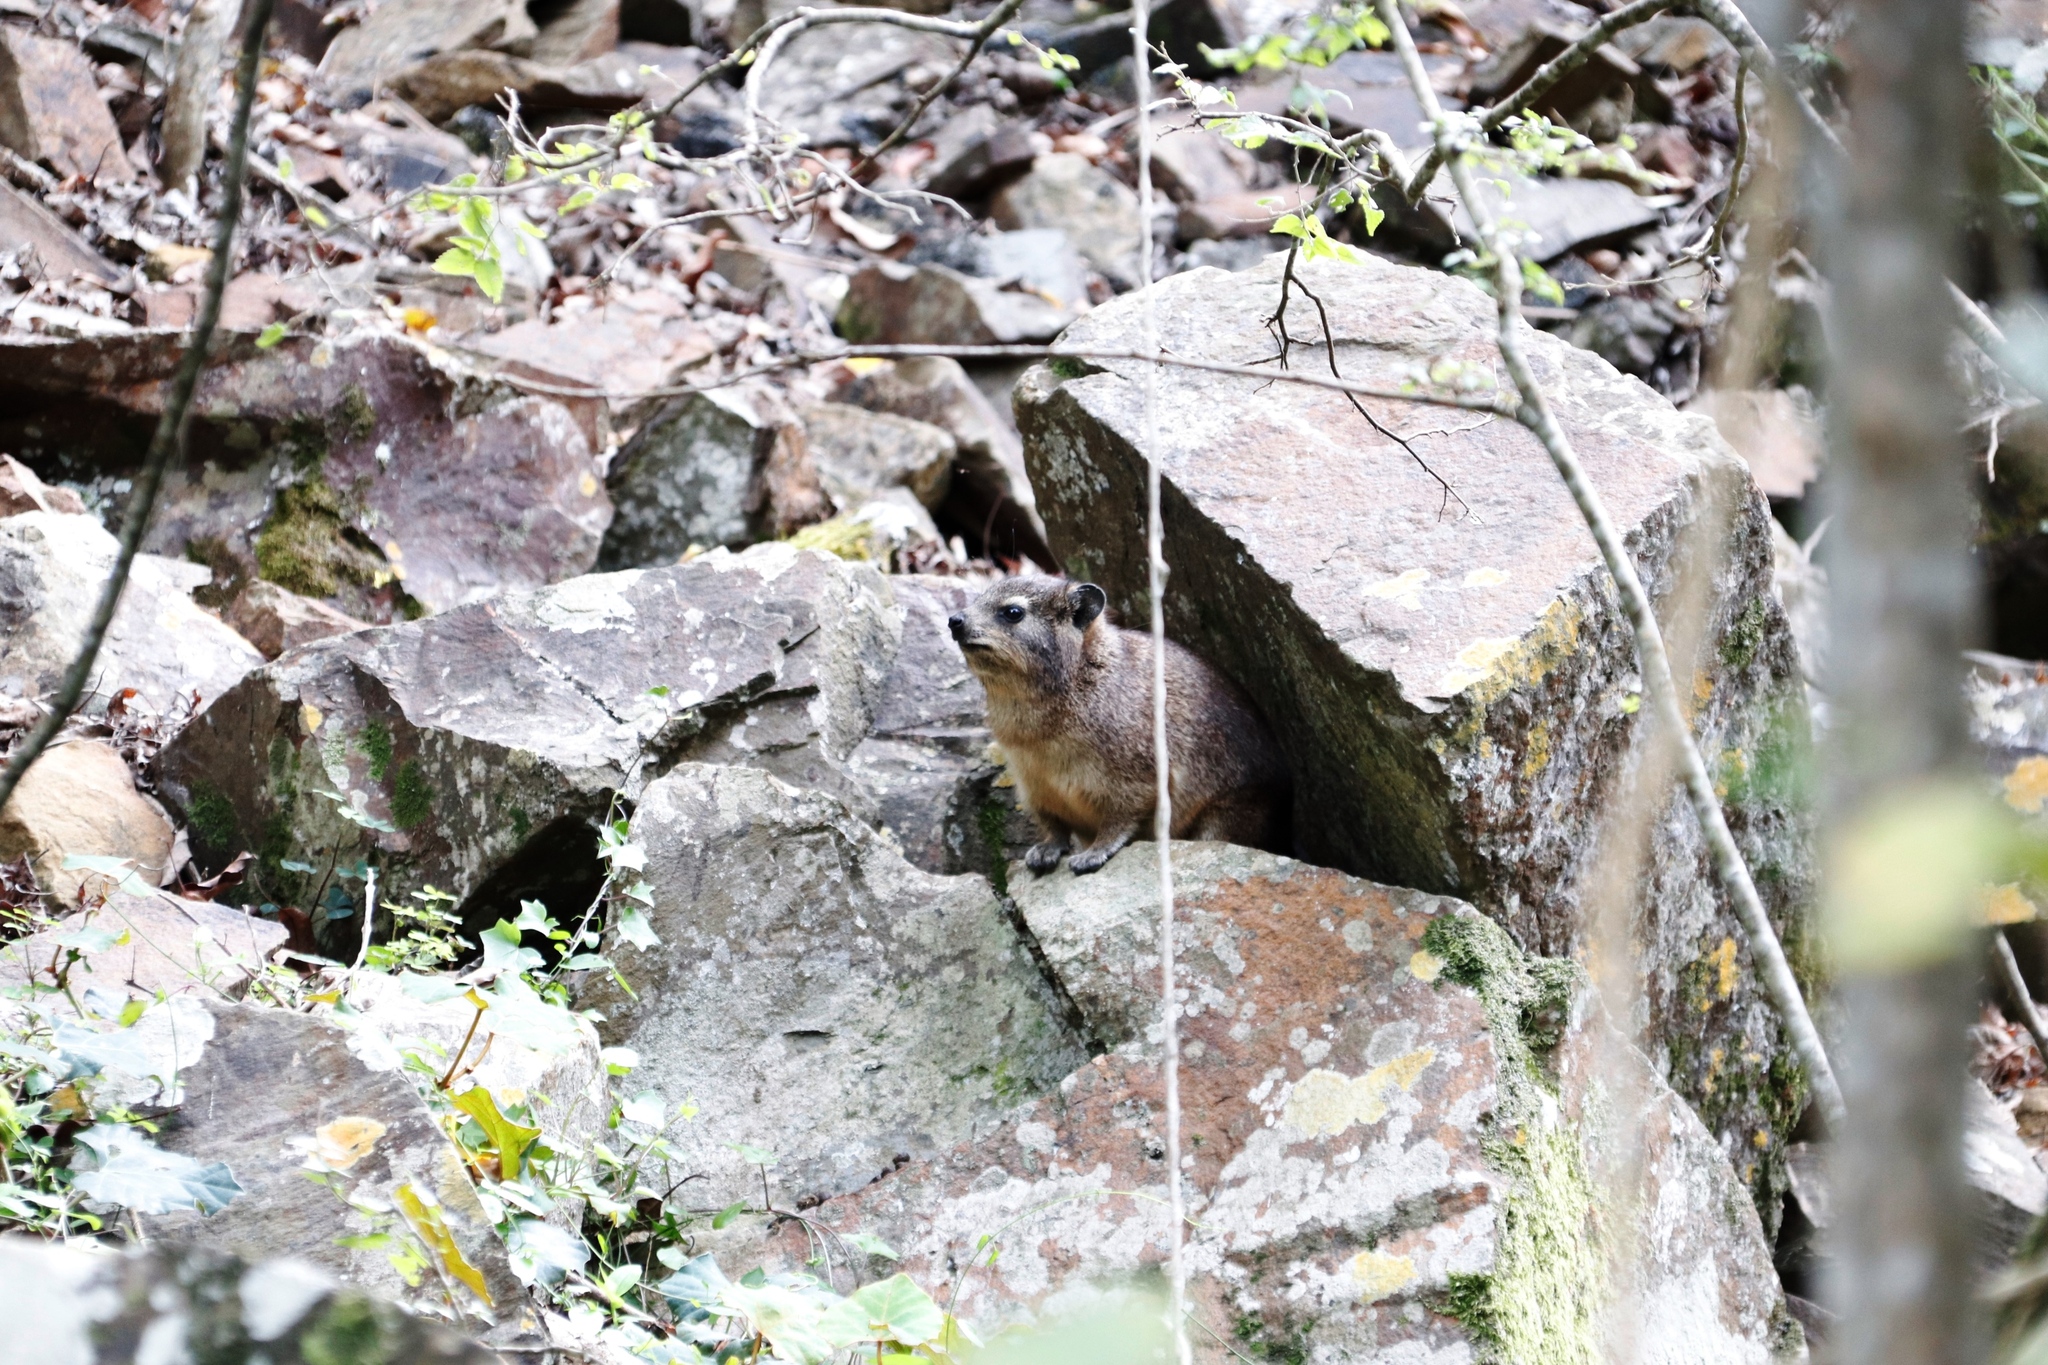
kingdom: Animalia
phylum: Chordata
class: Mammalia
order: Hyracoidea
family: Procaviidae
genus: Procavia
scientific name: Procavia capensis
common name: Rock hyrax
